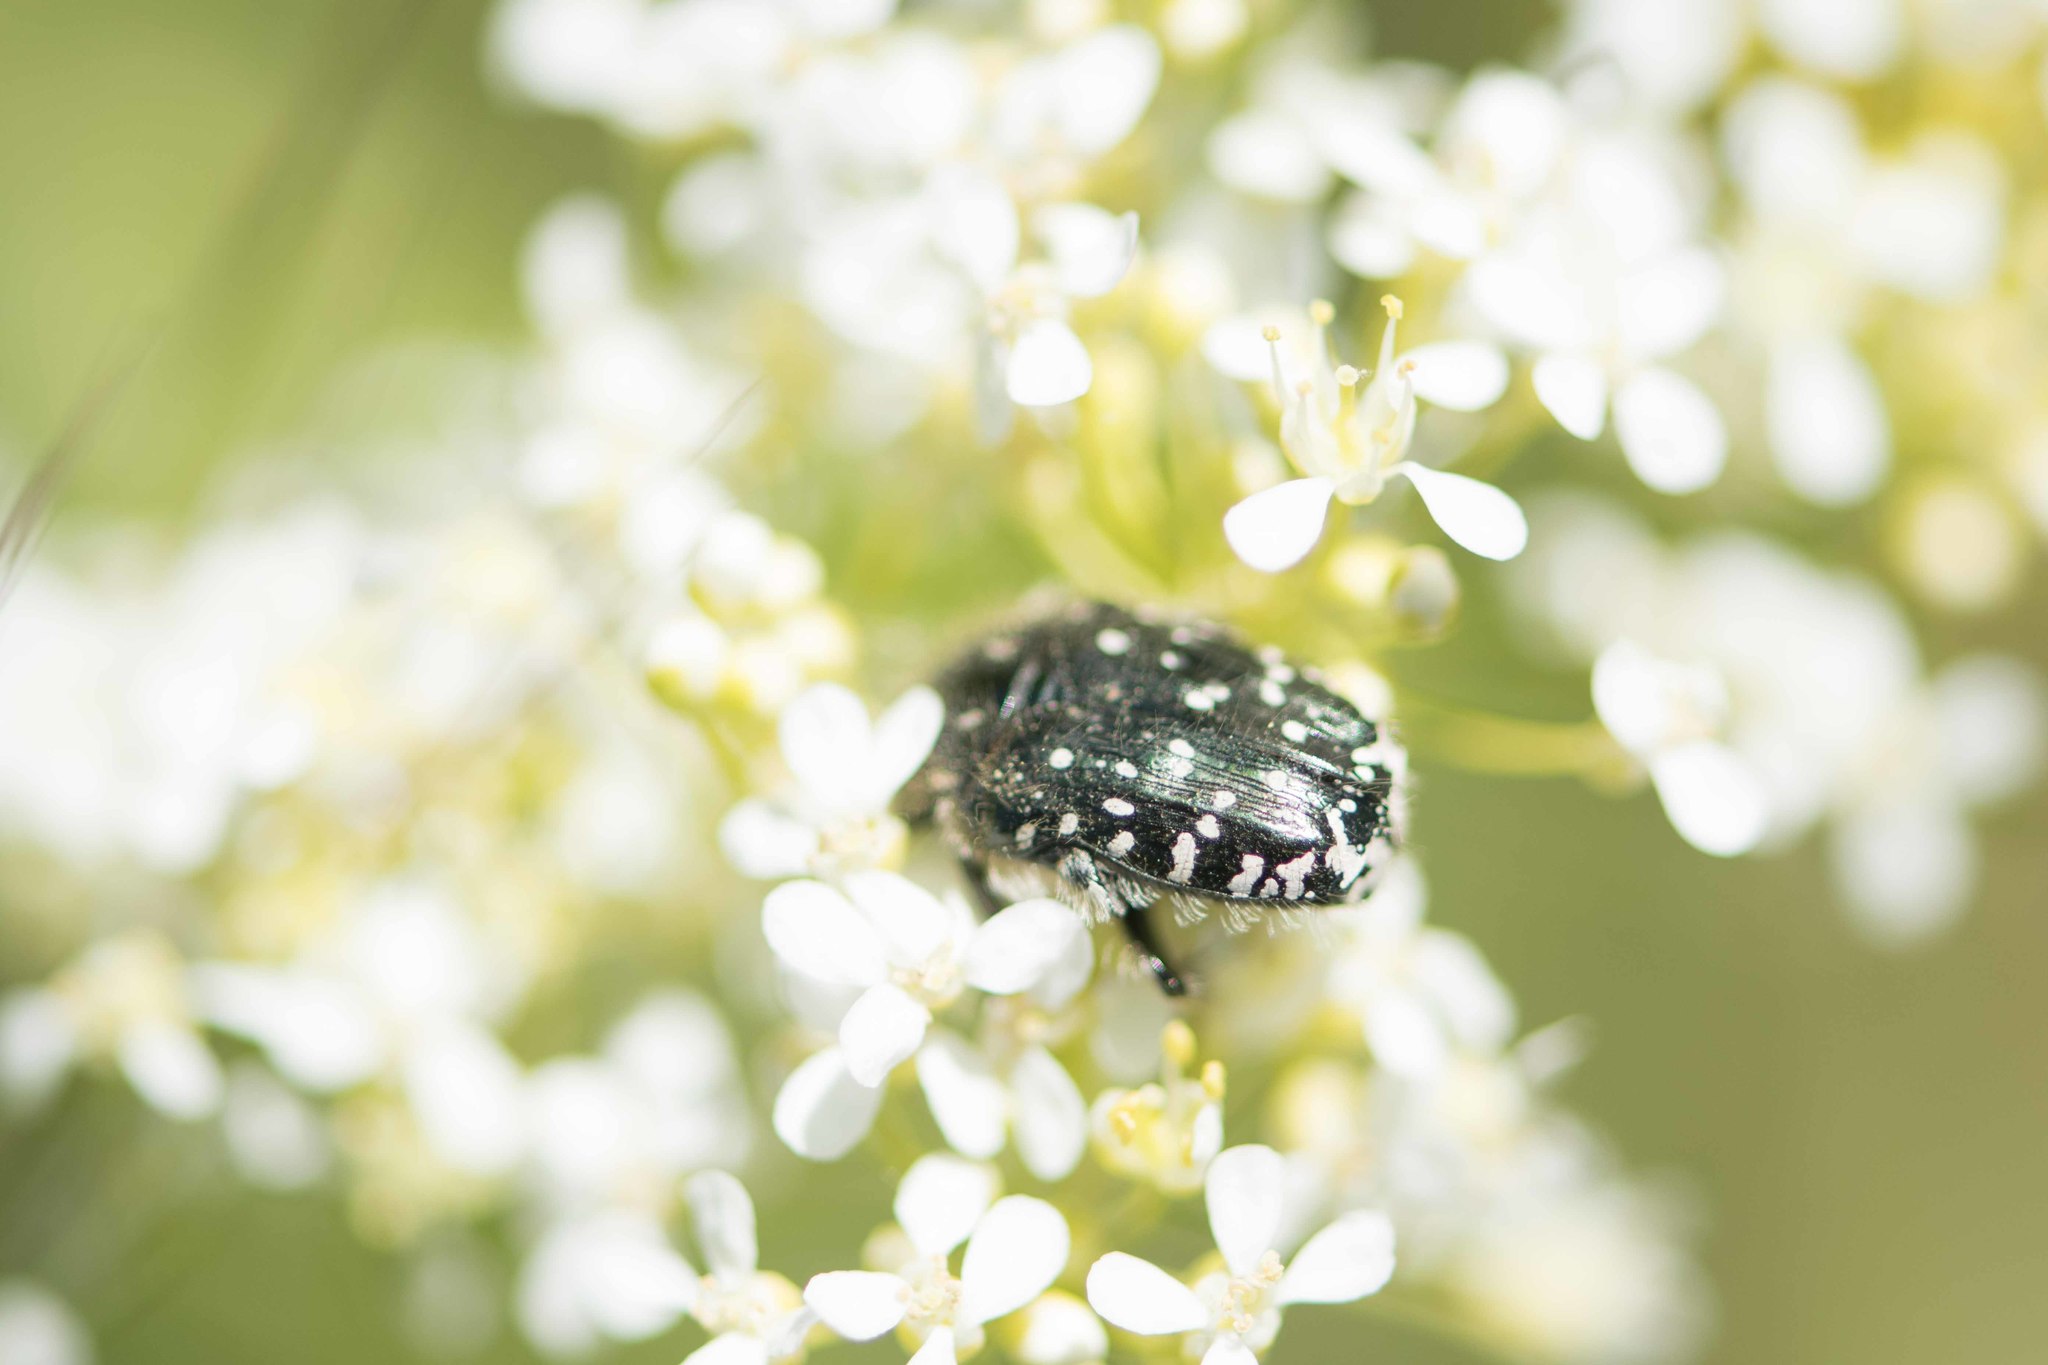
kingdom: Animalia
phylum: Arthropoda
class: Insecta
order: Coleoptera
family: Scarabaeidae
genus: Oxythyrea
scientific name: Oxythyrea funesta
